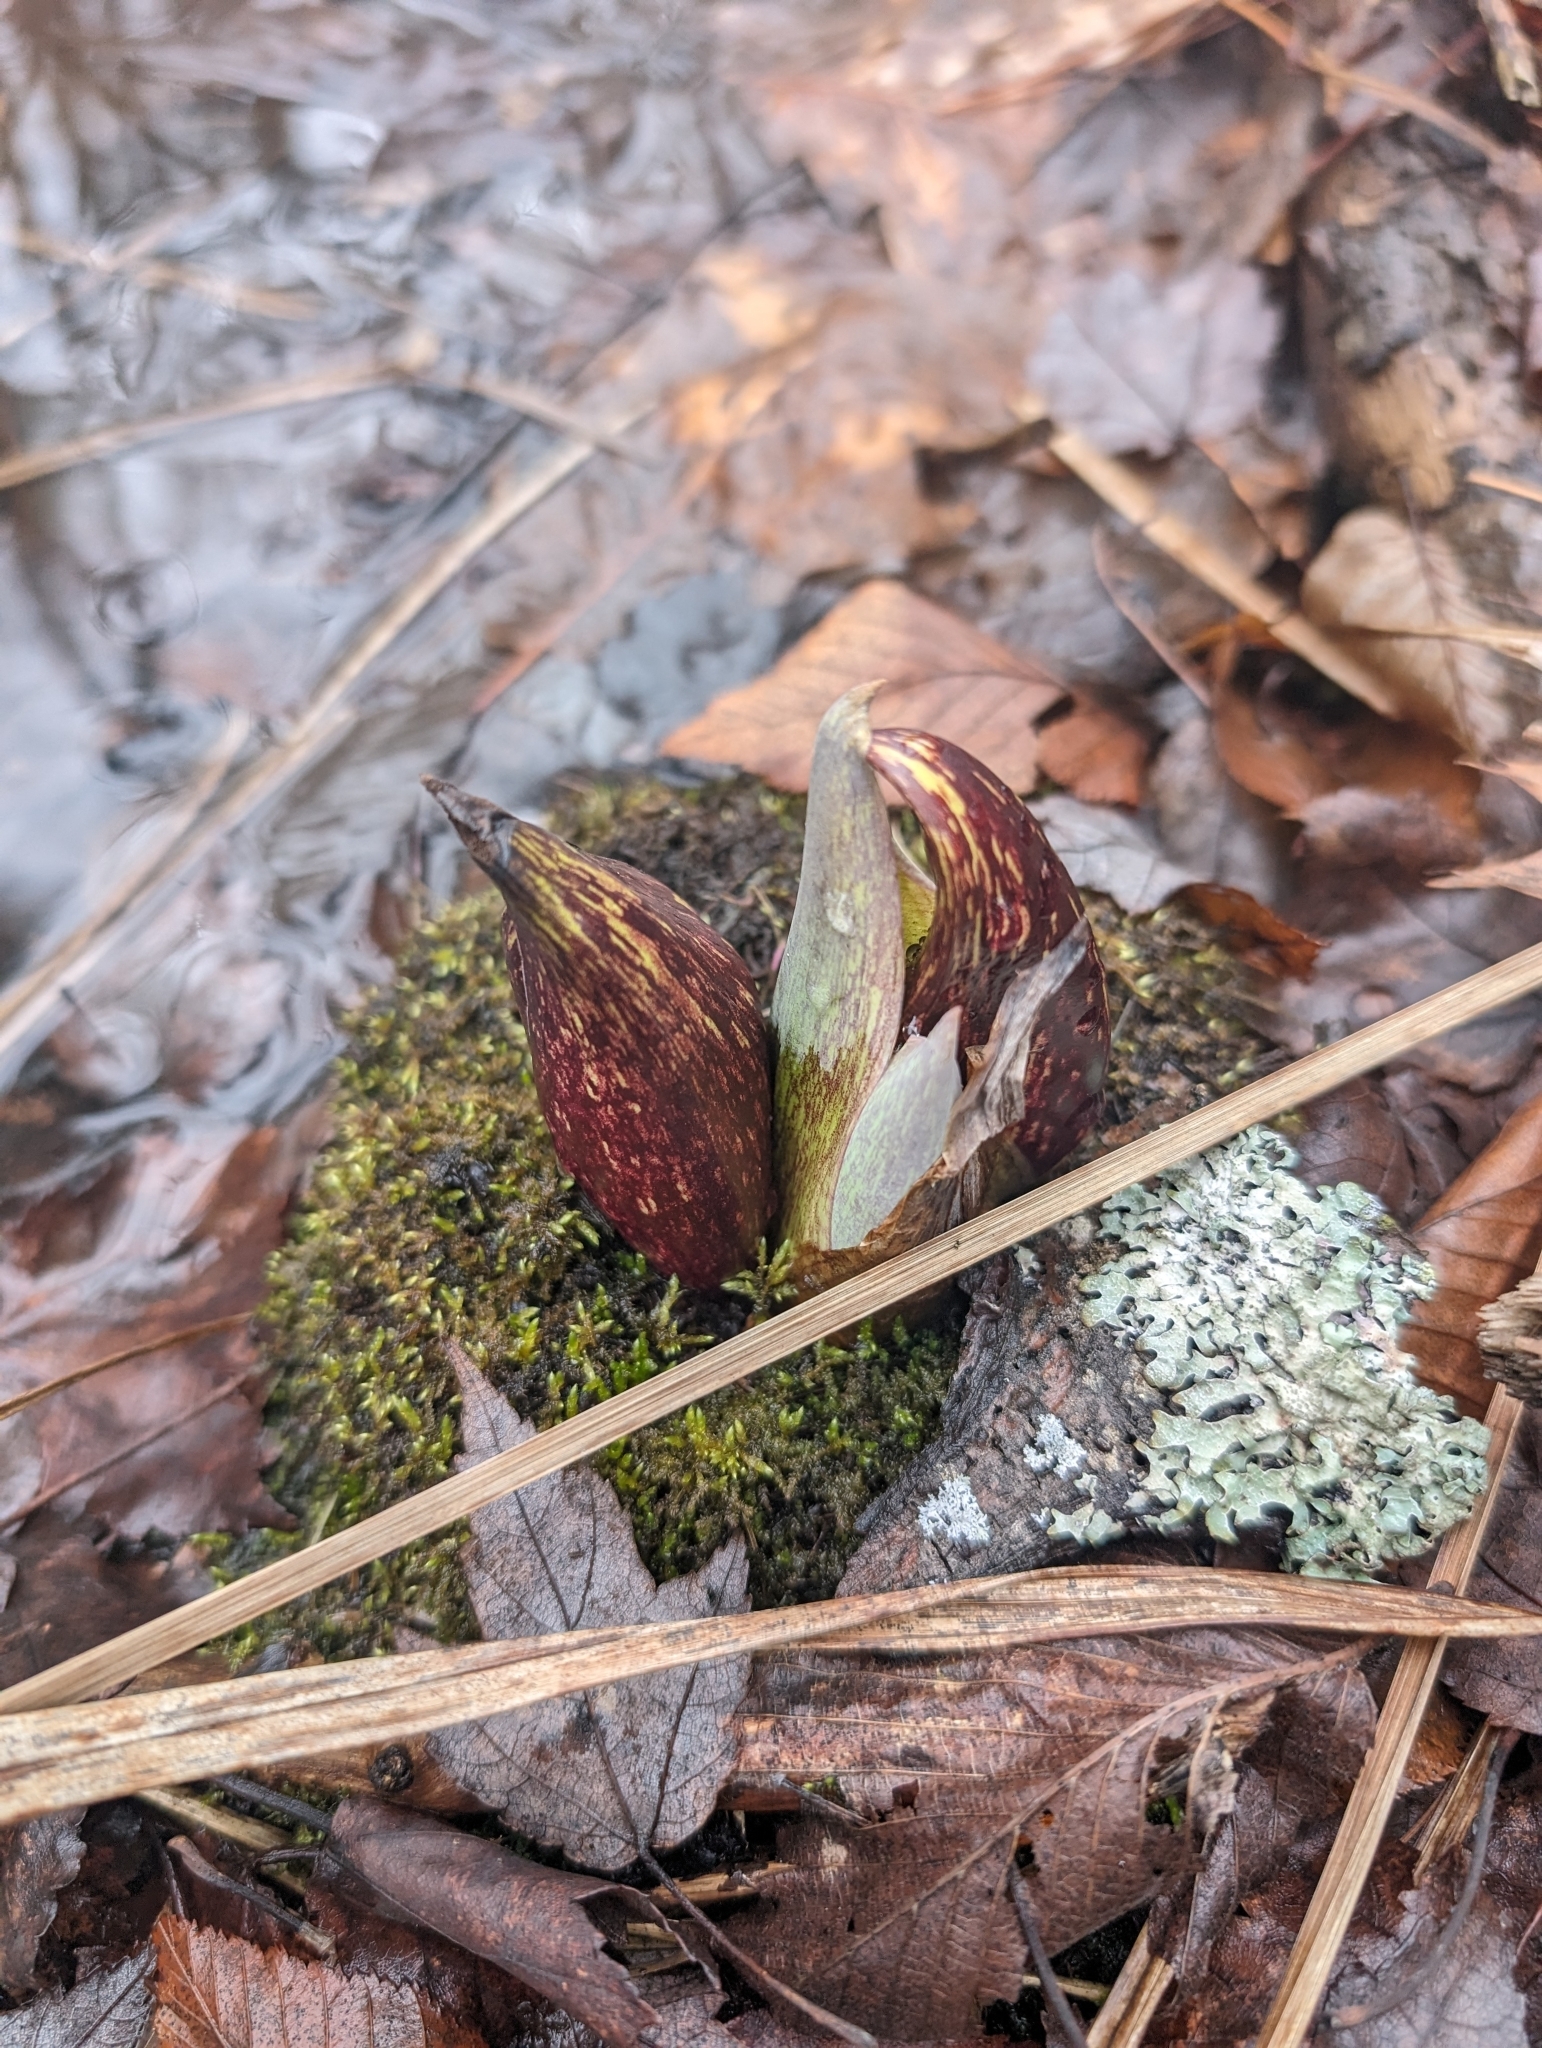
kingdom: Plantae
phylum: Tracheophyta
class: Liliopsida
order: Alismatales
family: Araceae
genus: Symplocarpus
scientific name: Symplocarpus foetidus
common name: Eastern skunk cabbage
